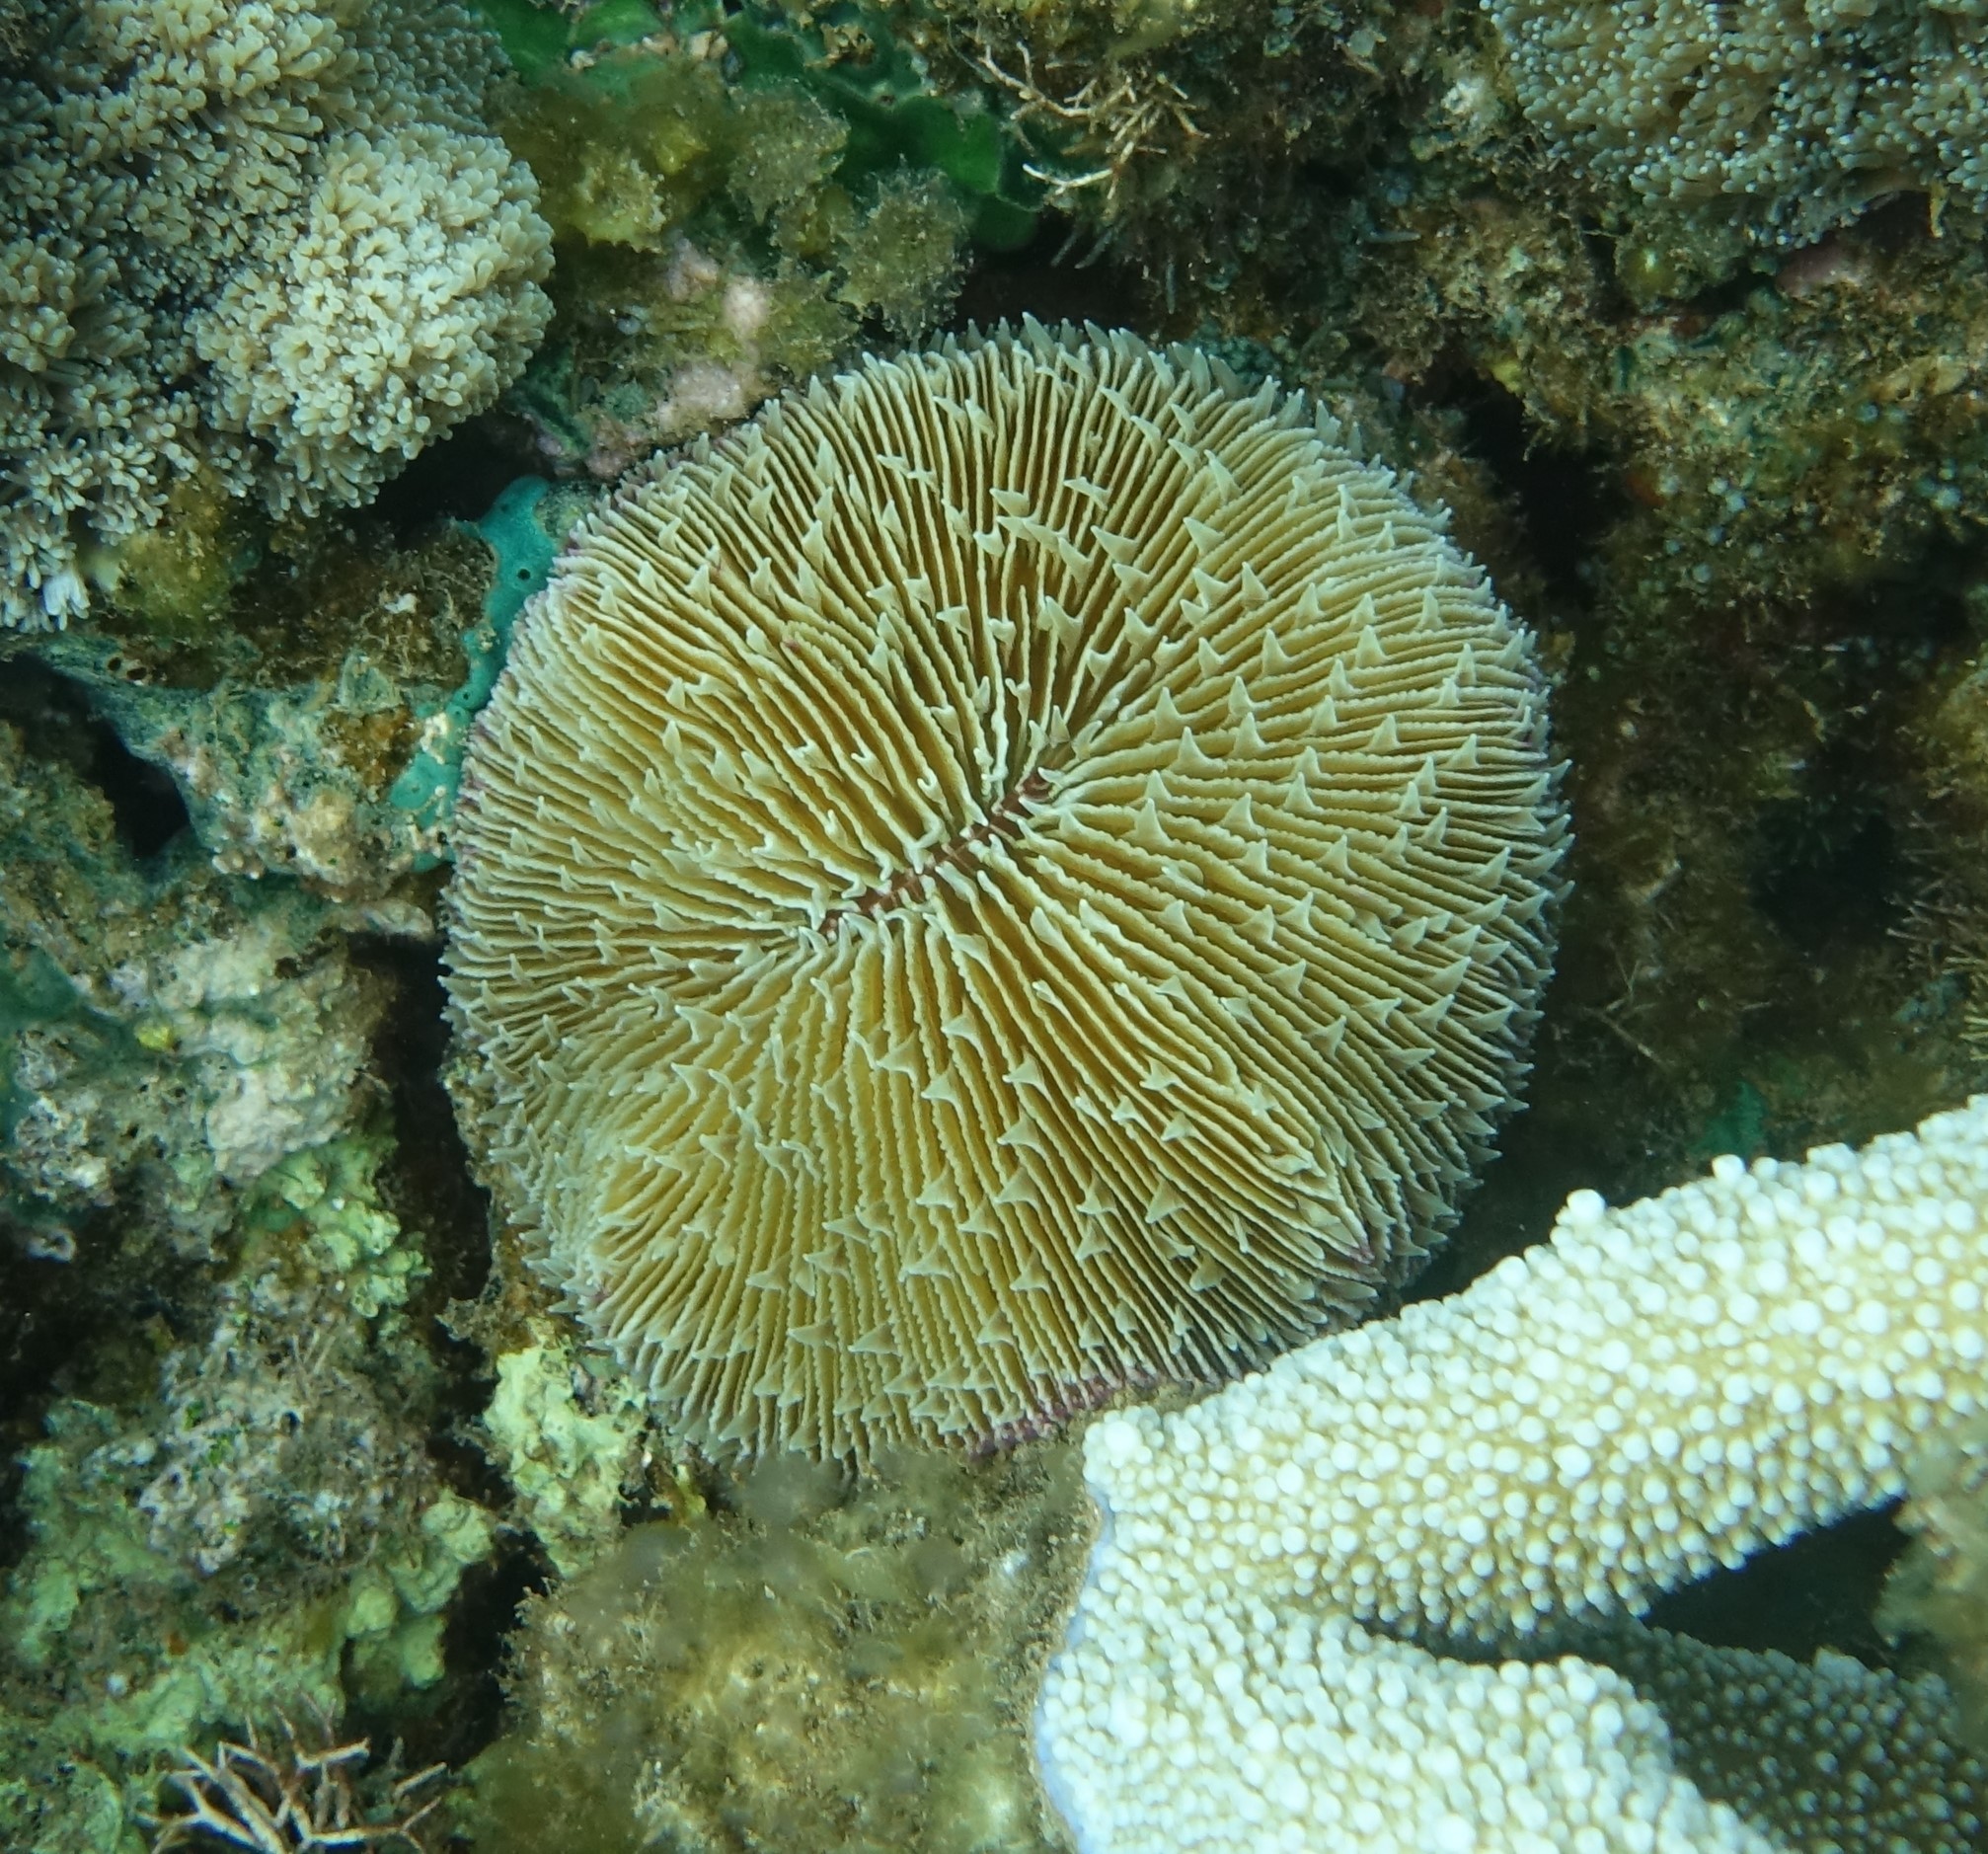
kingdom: Animalia
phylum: Cnidaria
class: Anthozoa
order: Scleractinia
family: Fungiidae
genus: Fungia
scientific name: Fungia fungites
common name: Mushroom coral
